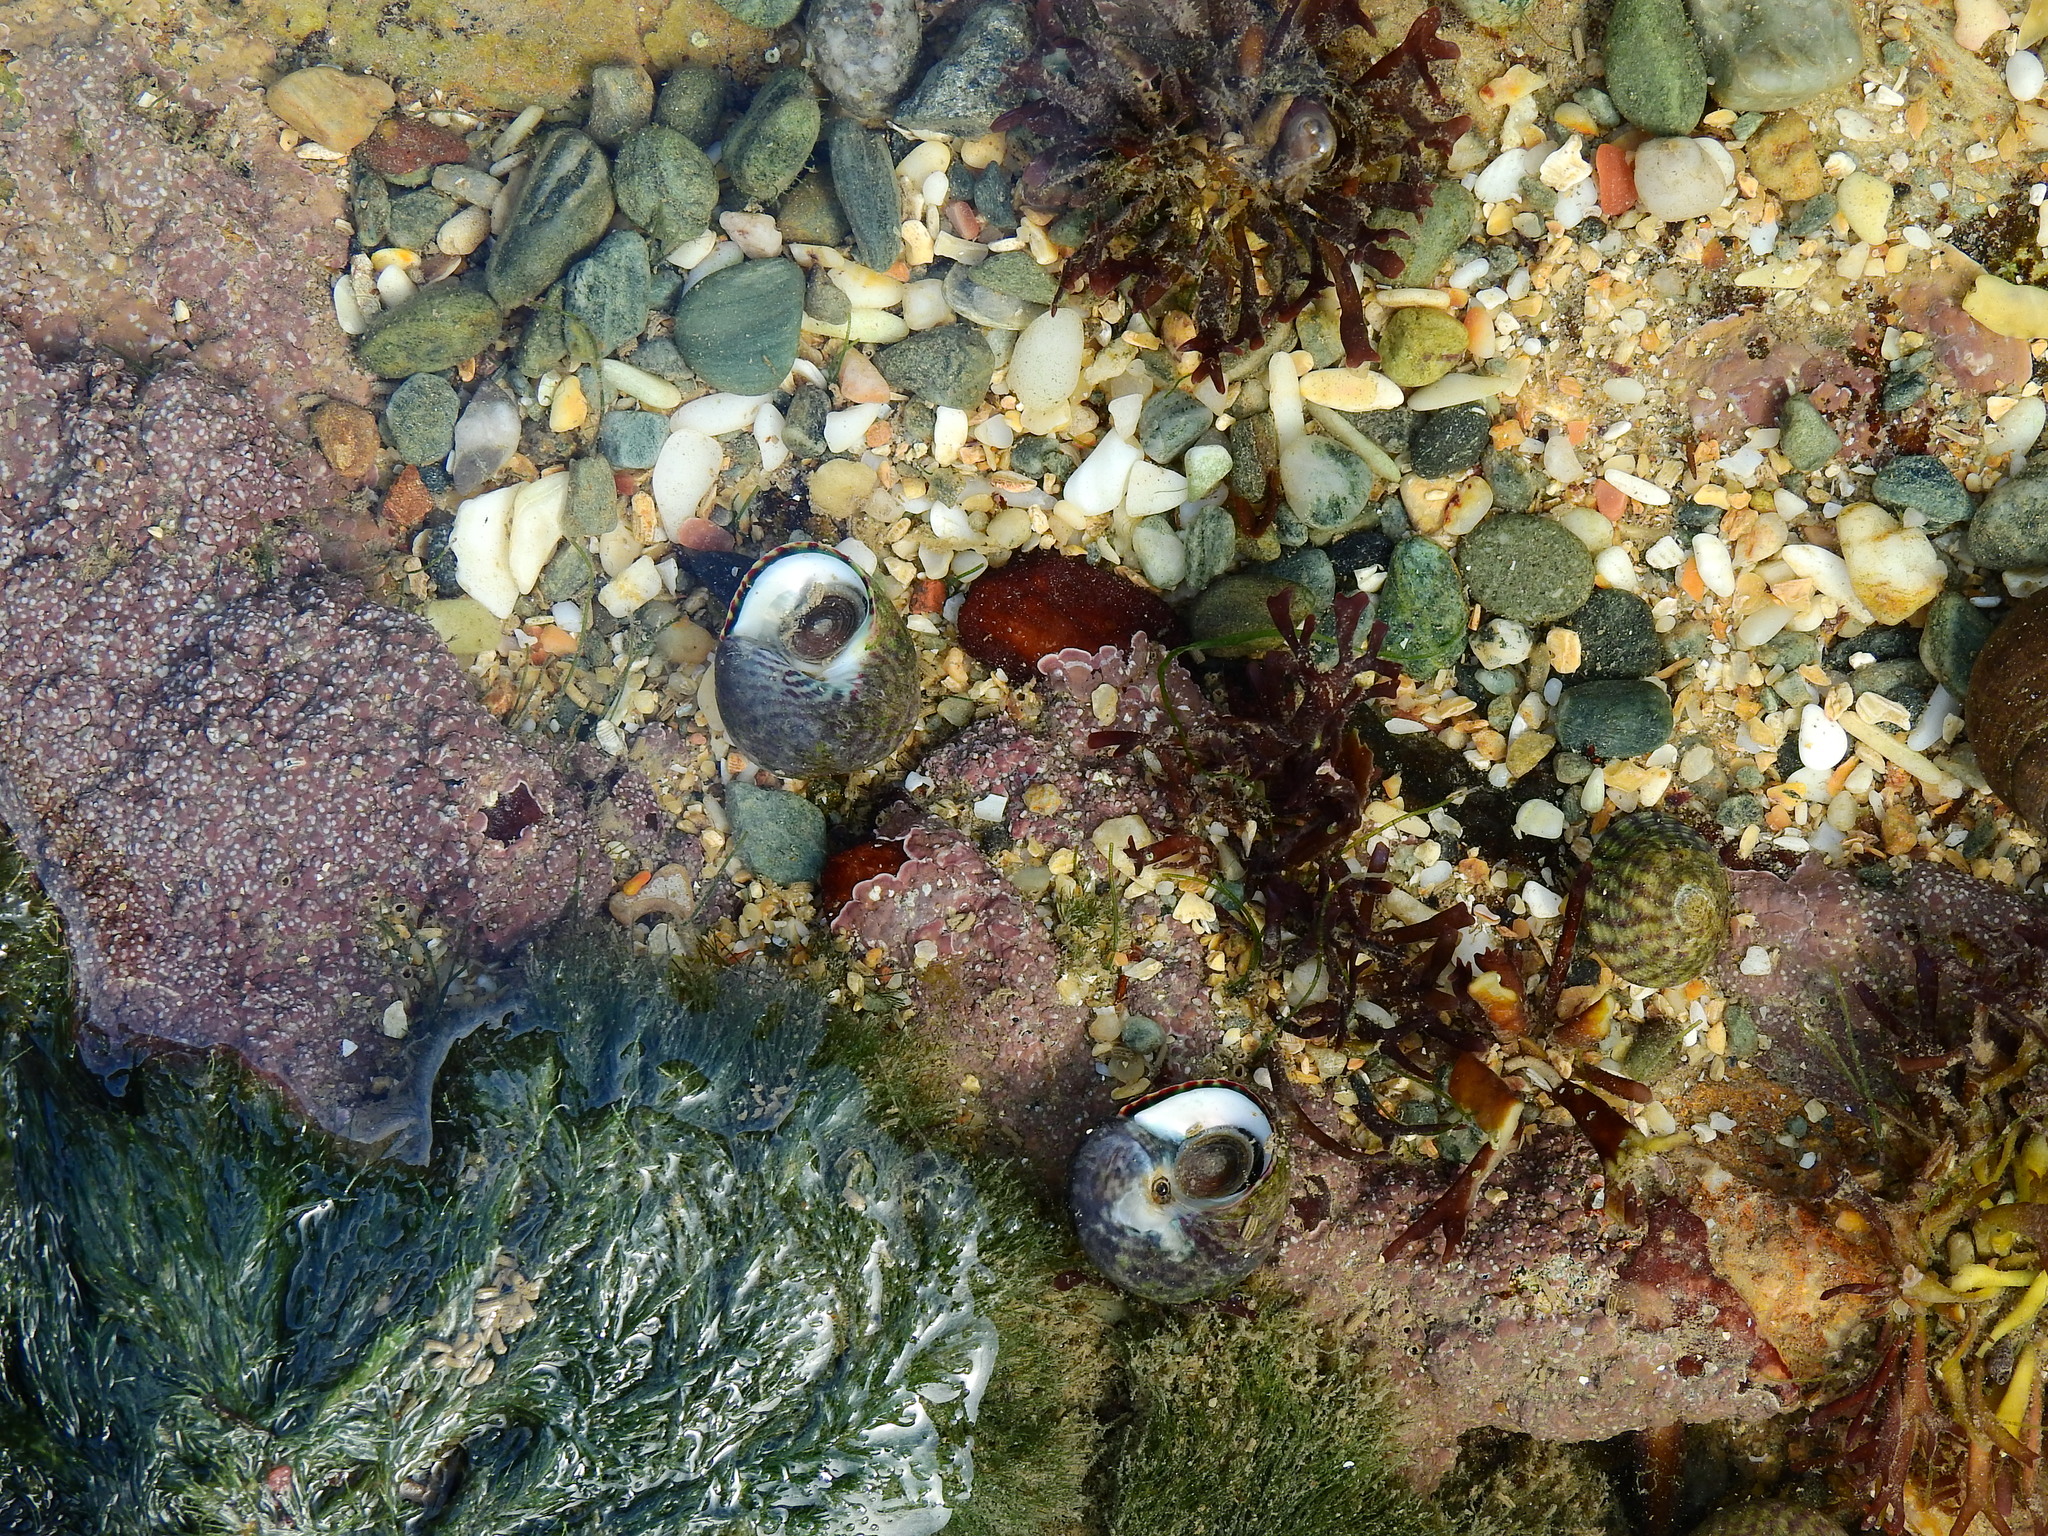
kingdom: Plantae
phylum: Rhodophyta
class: Florideophyceae
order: Corallinales
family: Lithophyllaceae
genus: Lithophyllum
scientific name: Lithophyllum incrustans
